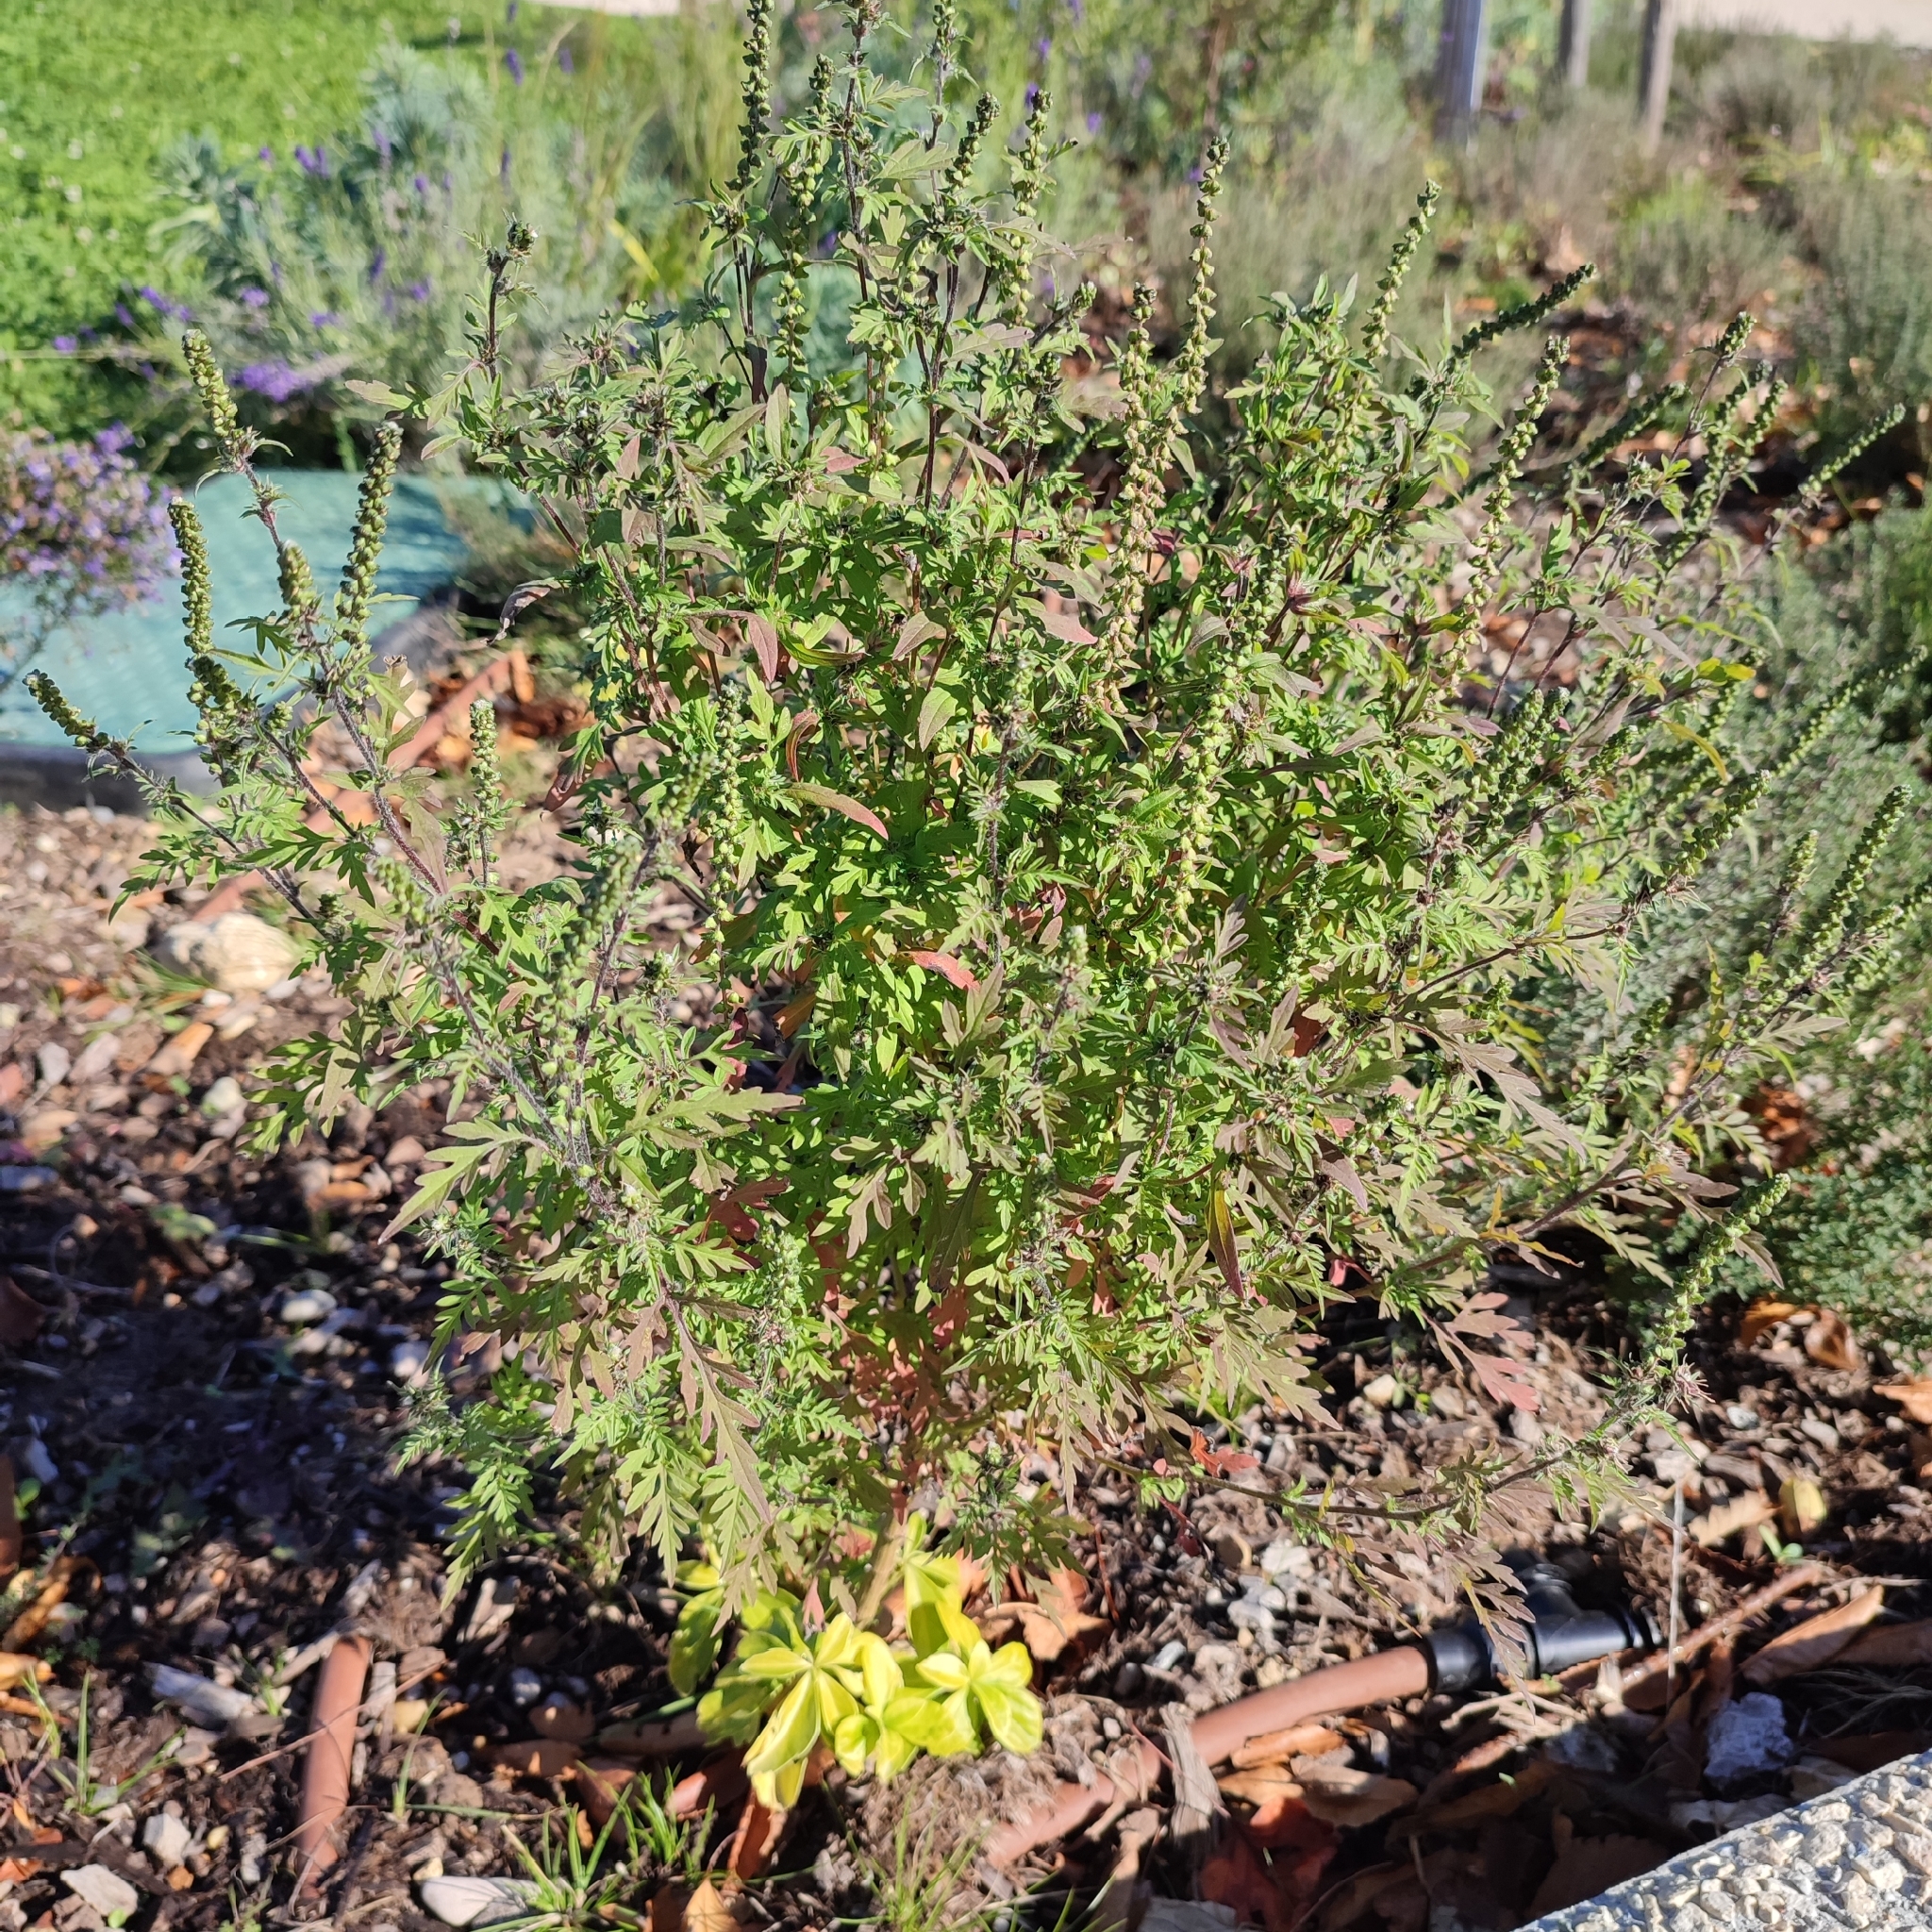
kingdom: Plantae
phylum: Tracheophyta
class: Magnoliopsida
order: Asterales
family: Asteraceae
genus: Ambrosia
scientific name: Ambrosia artemisiifolia
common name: Annual ragweed
